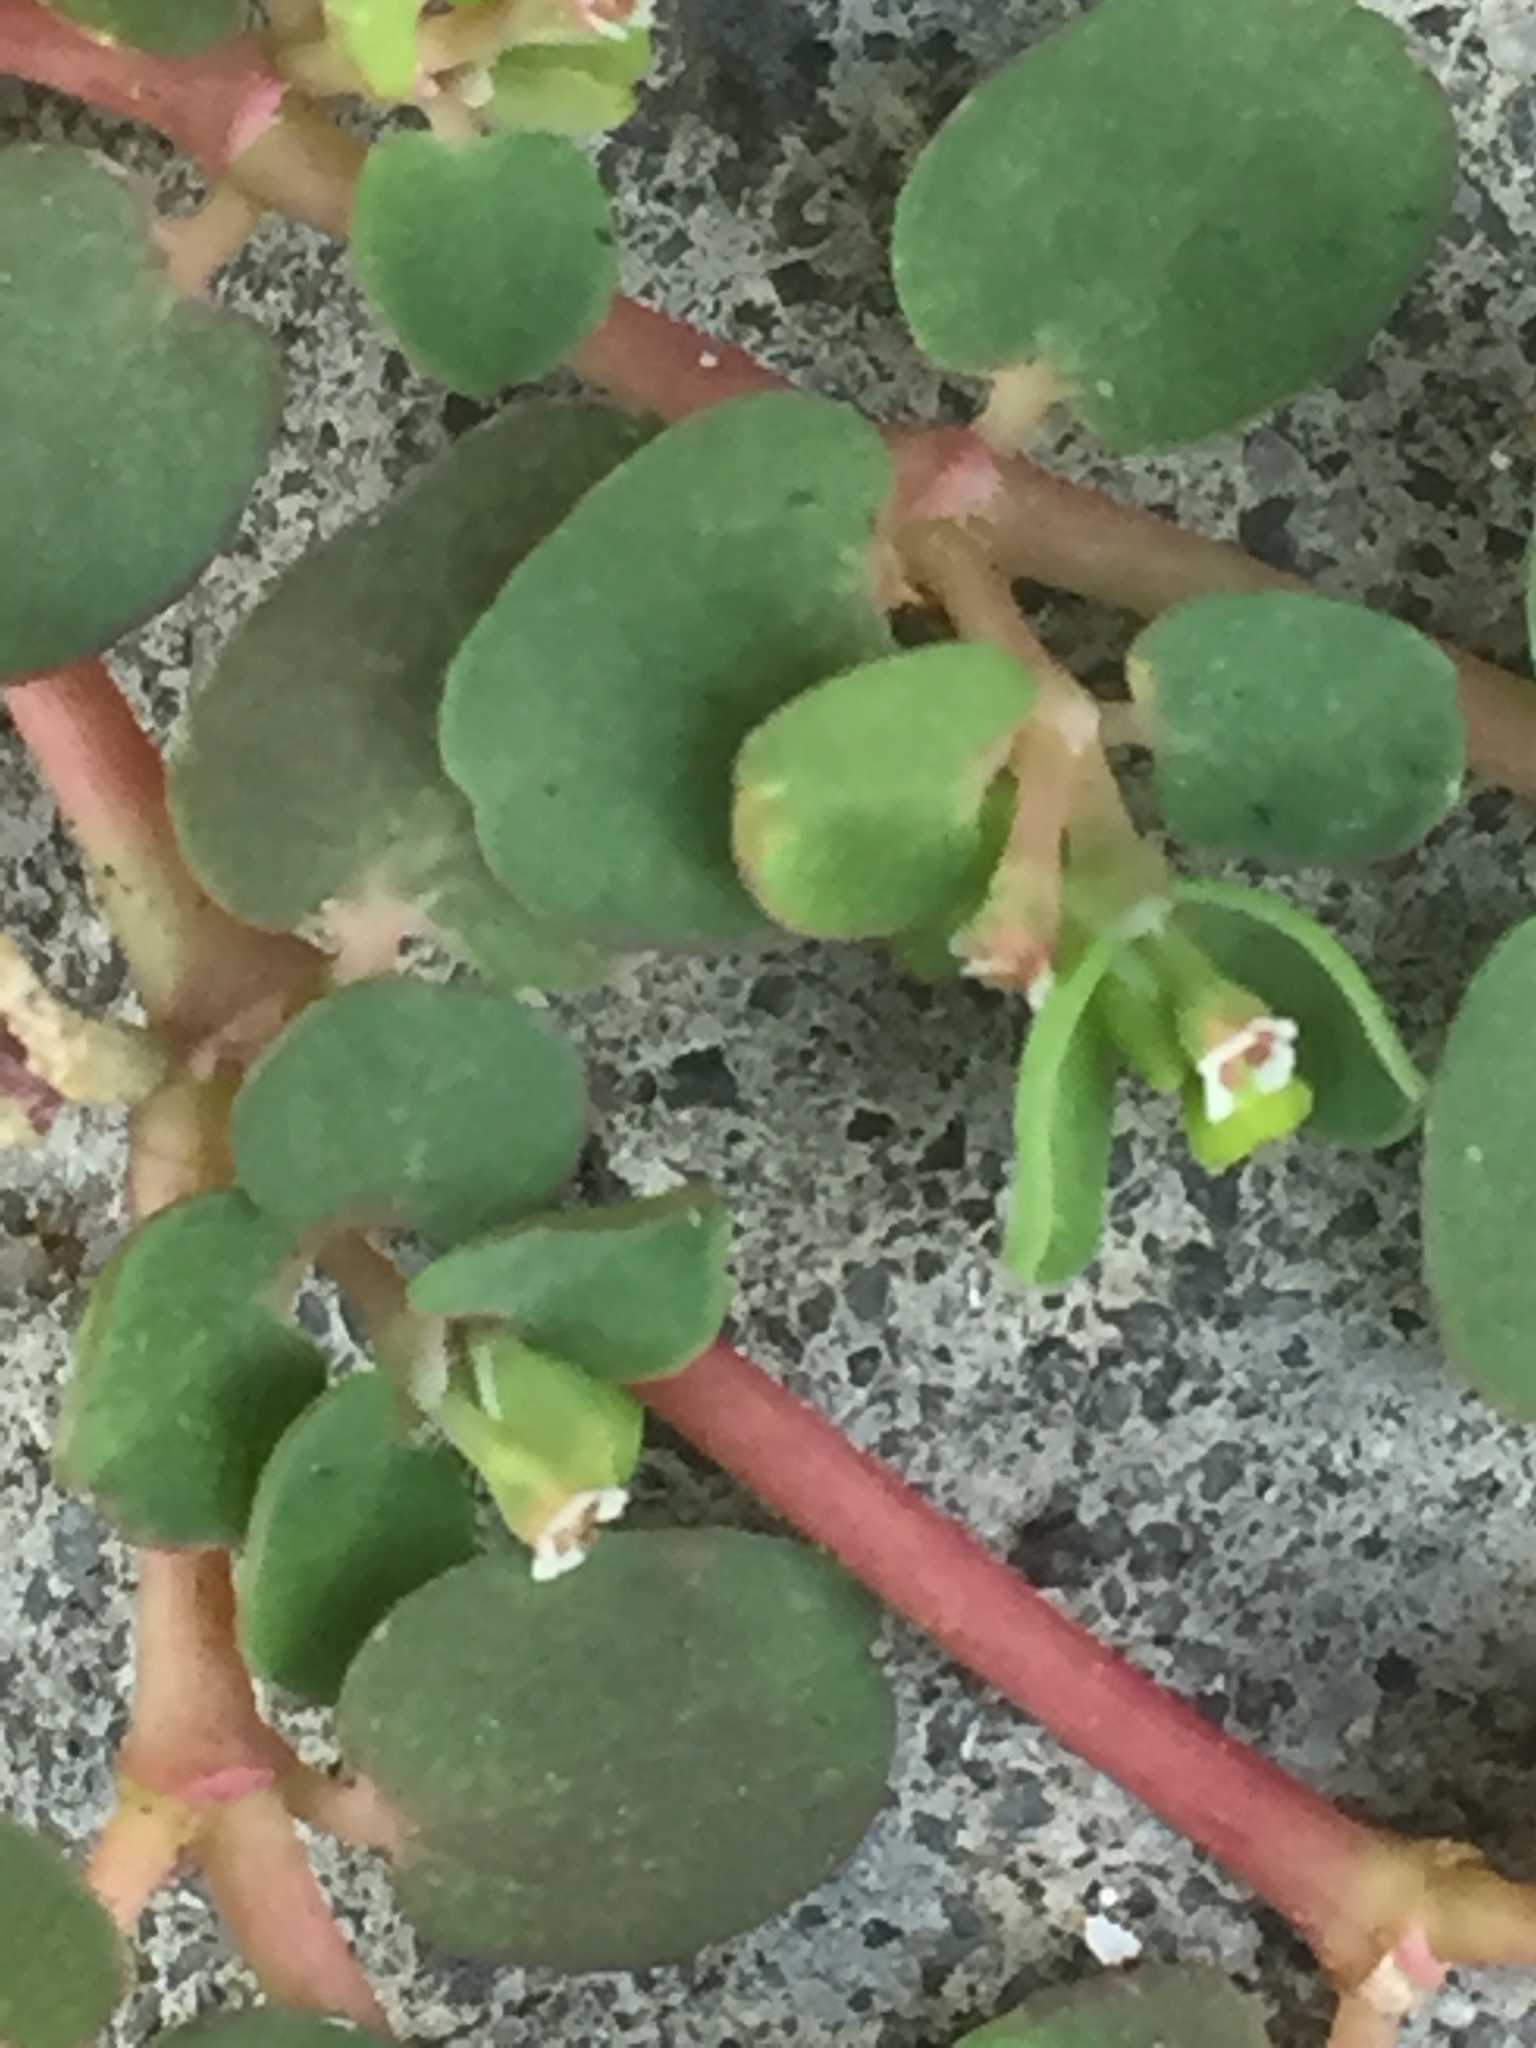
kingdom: Plantae
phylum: Tracheophyta
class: Magnoliopsida
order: Malpighiales
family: Euphorbiaceae
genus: Euphorbia
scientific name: Euphorbia serpens
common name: Matted sandmat
